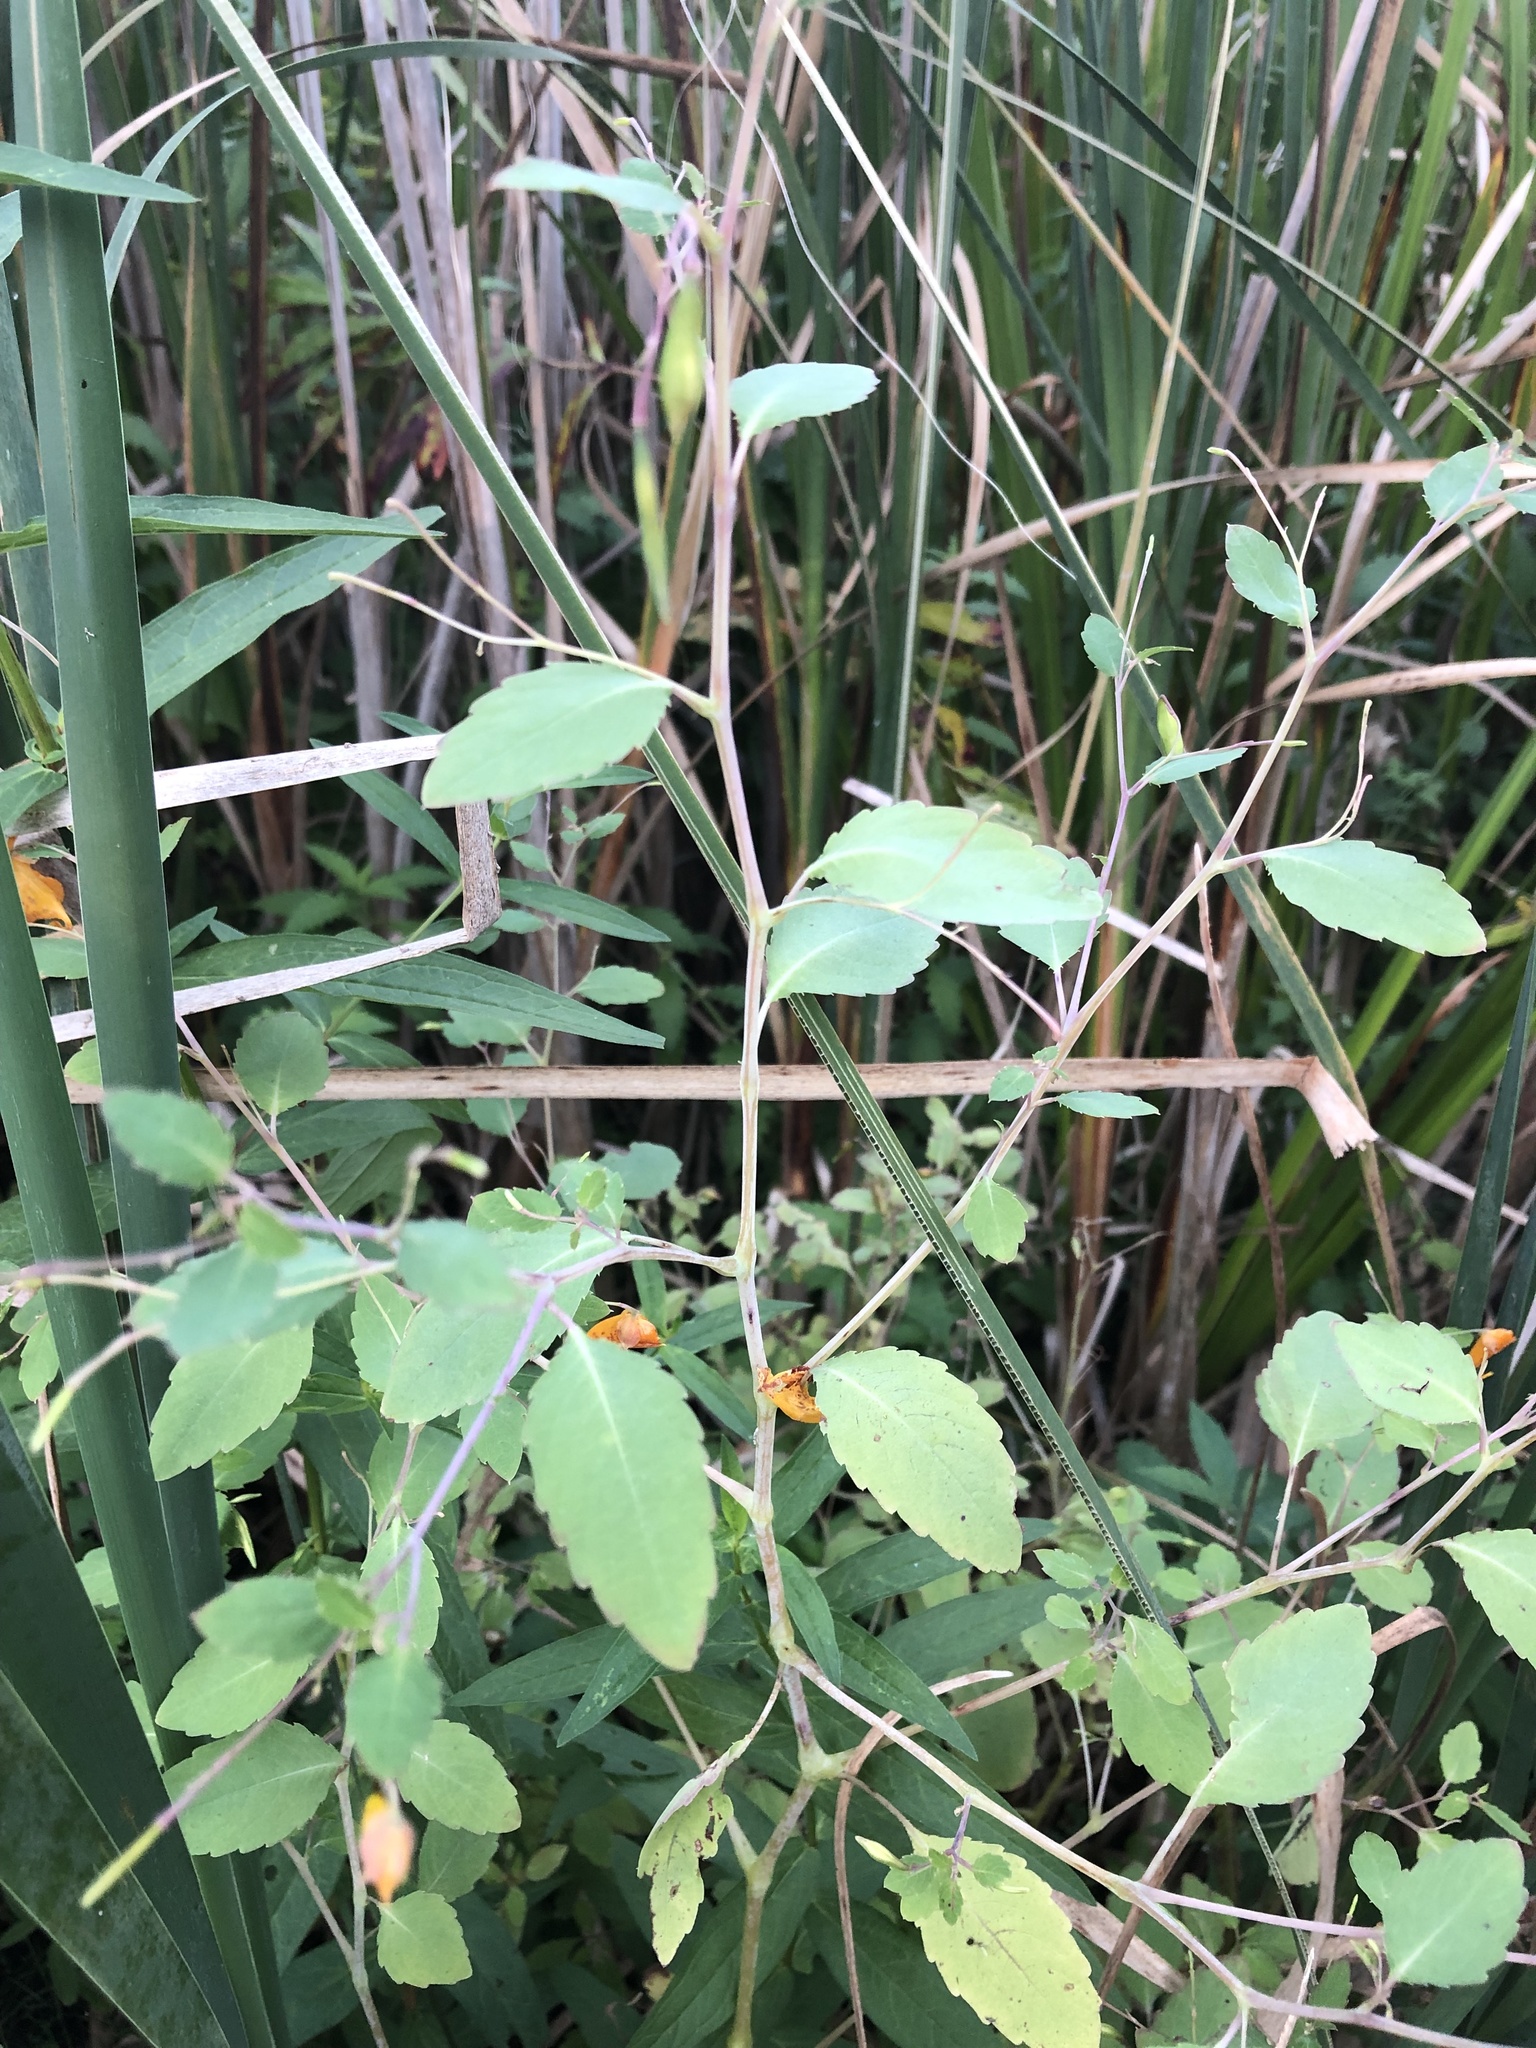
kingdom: Plantae
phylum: Tracheophyta
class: Magnoliopsida
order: Ericales
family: Balsaminaceae
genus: Impatiens
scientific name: Impatiens capensis
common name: Orange balsam
